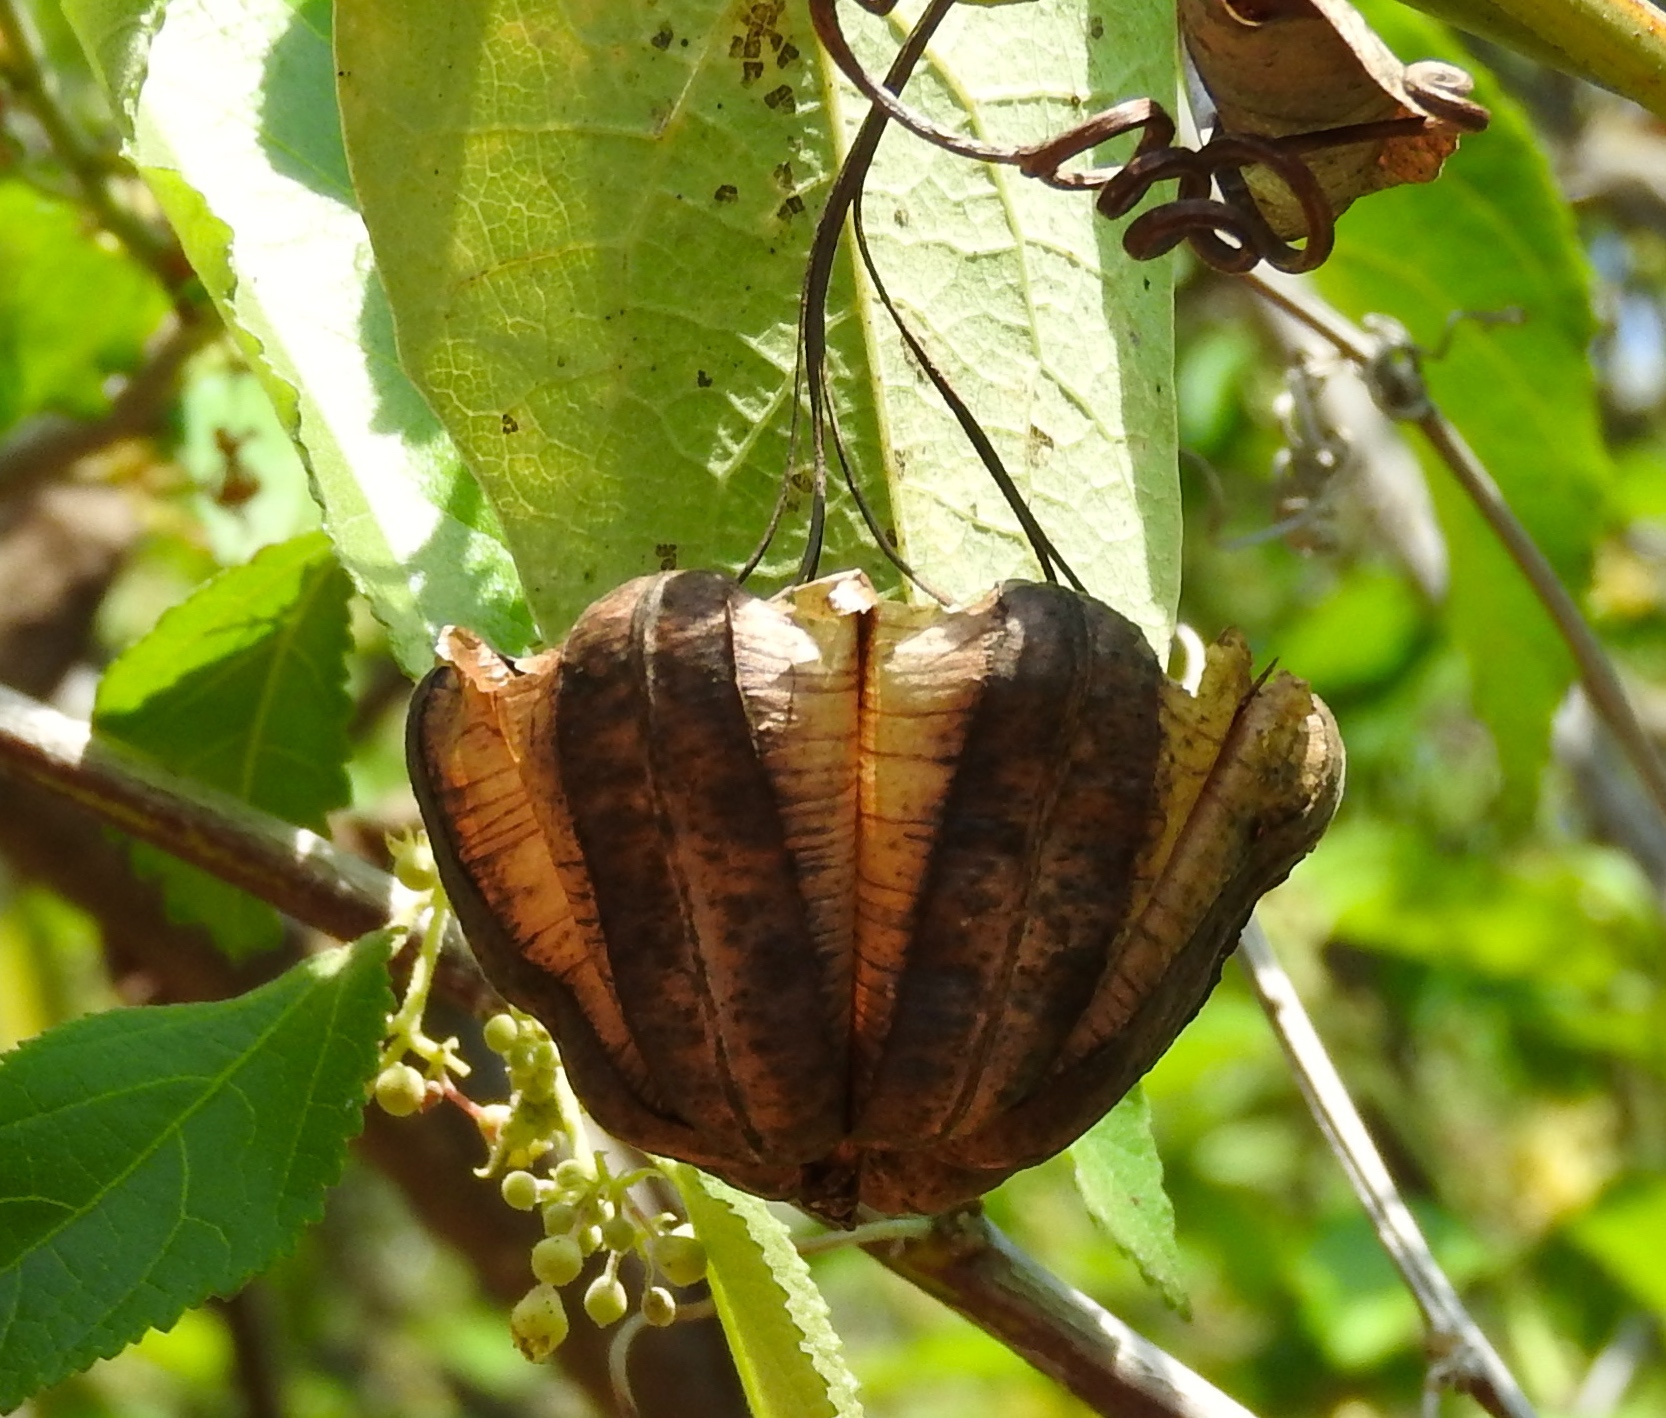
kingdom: Plantae
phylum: Tracheophyta
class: Magnoliopsida
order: Piperales
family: Aristolochiaceae
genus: Aristolochia
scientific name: Aristolochia taliscana
